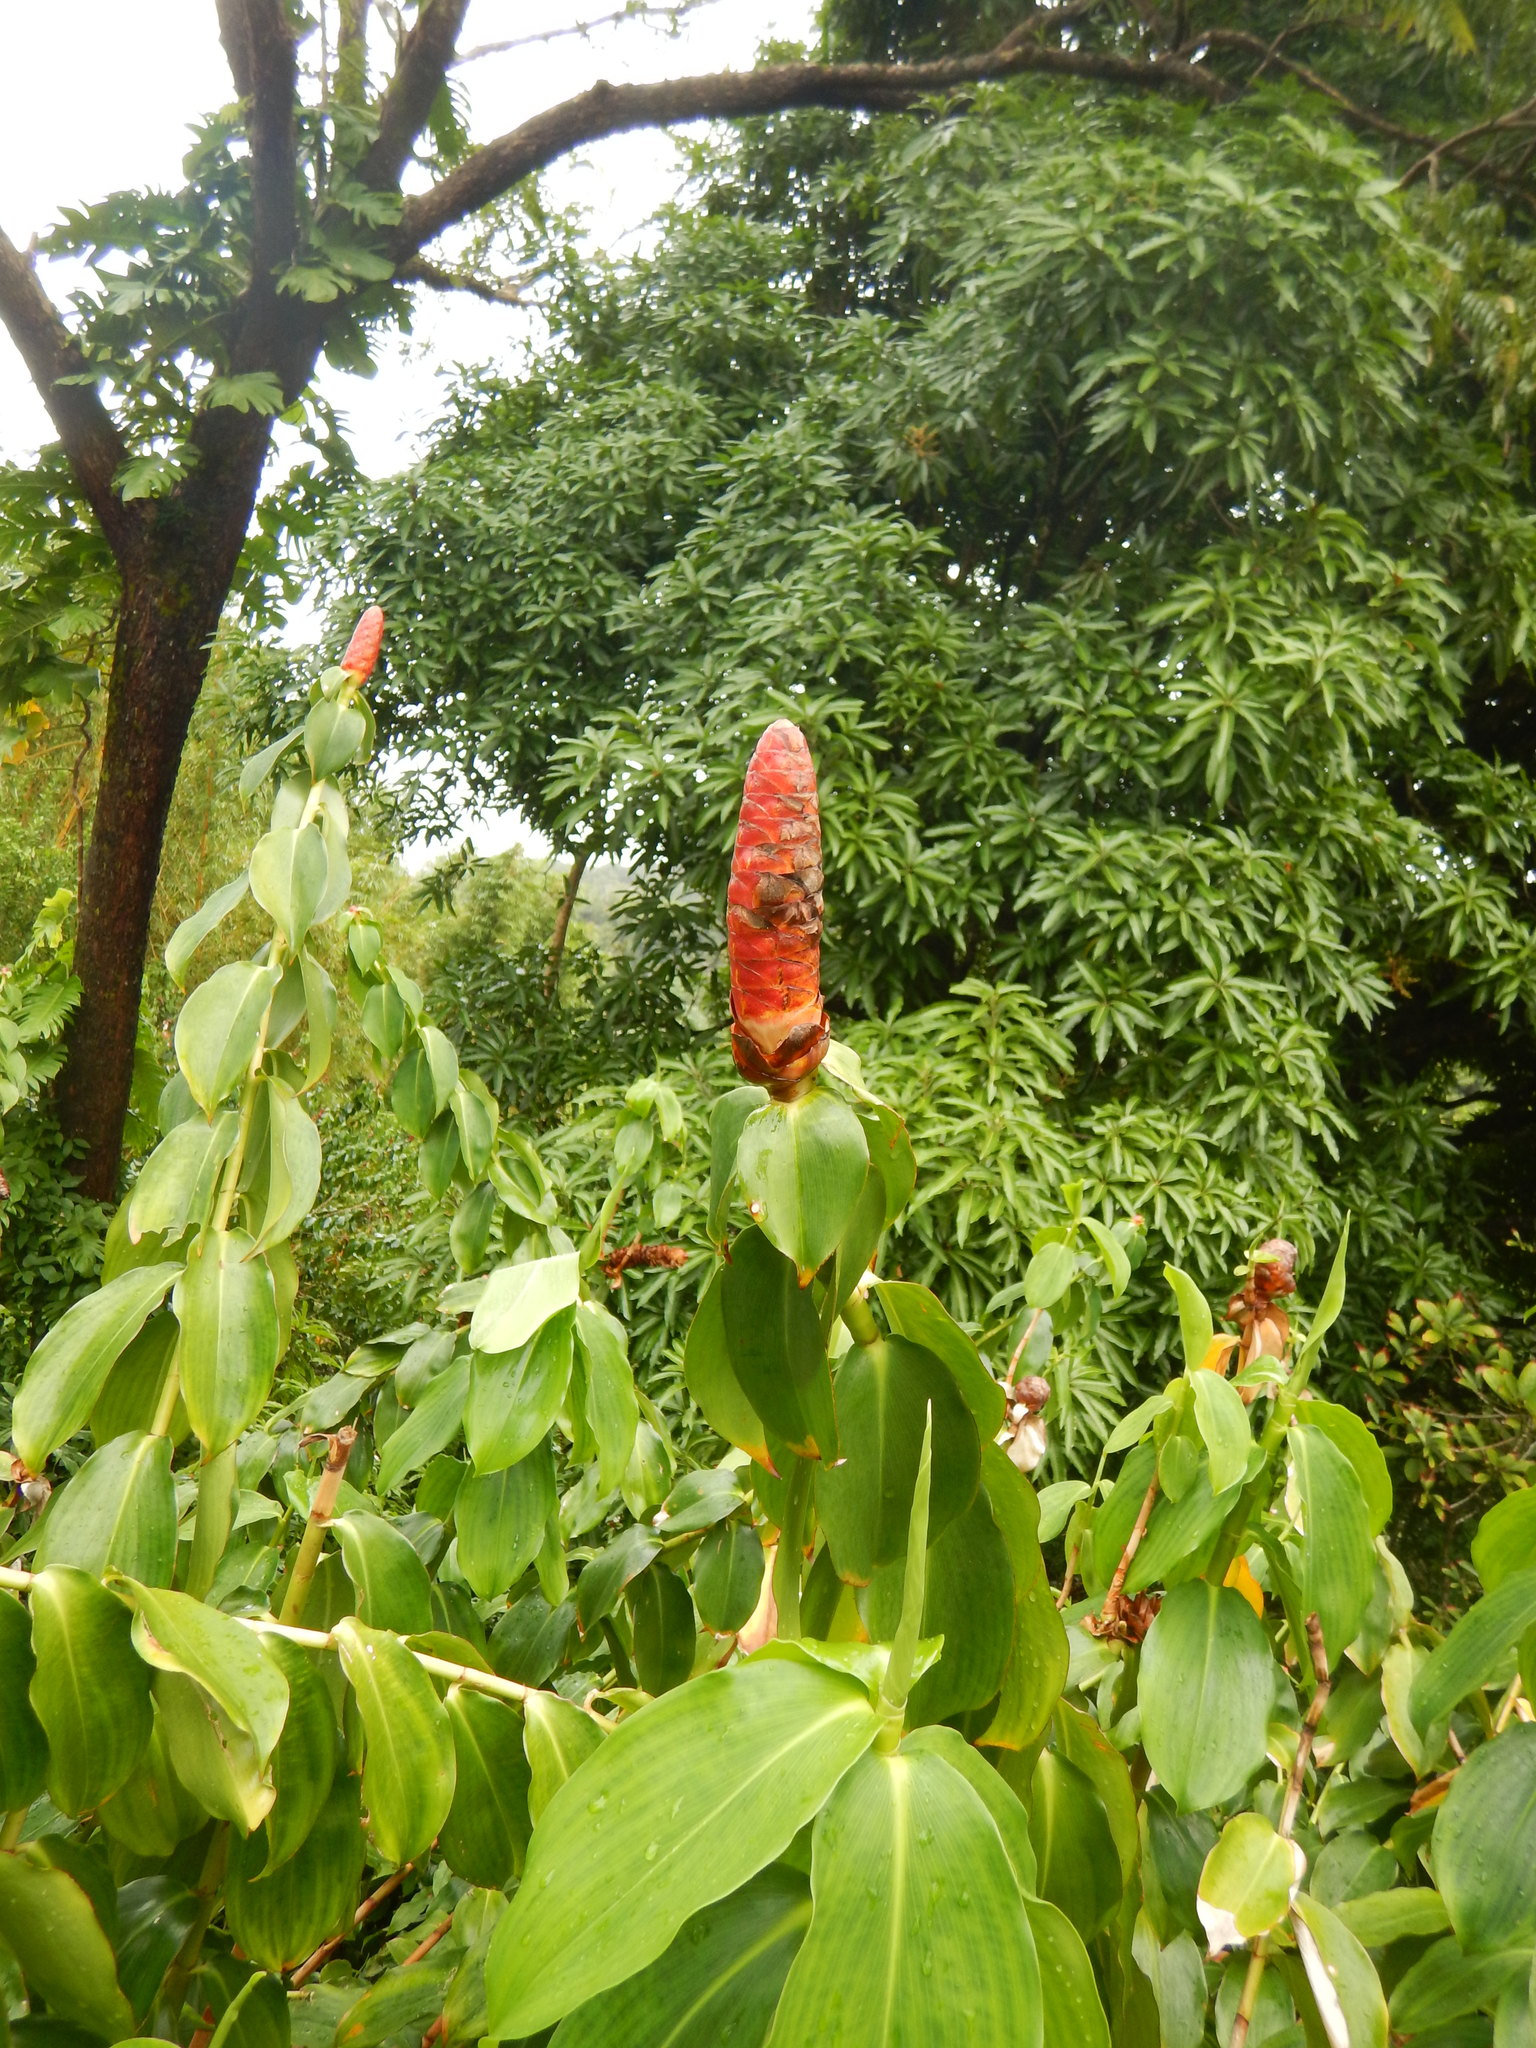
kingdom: Plantae
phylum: Tracheophyta
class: Liliopsida
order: Zingiberales
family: Costaceae
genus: Costus
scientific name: Costus woodsonii
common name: Scarlet spiral-ginger
